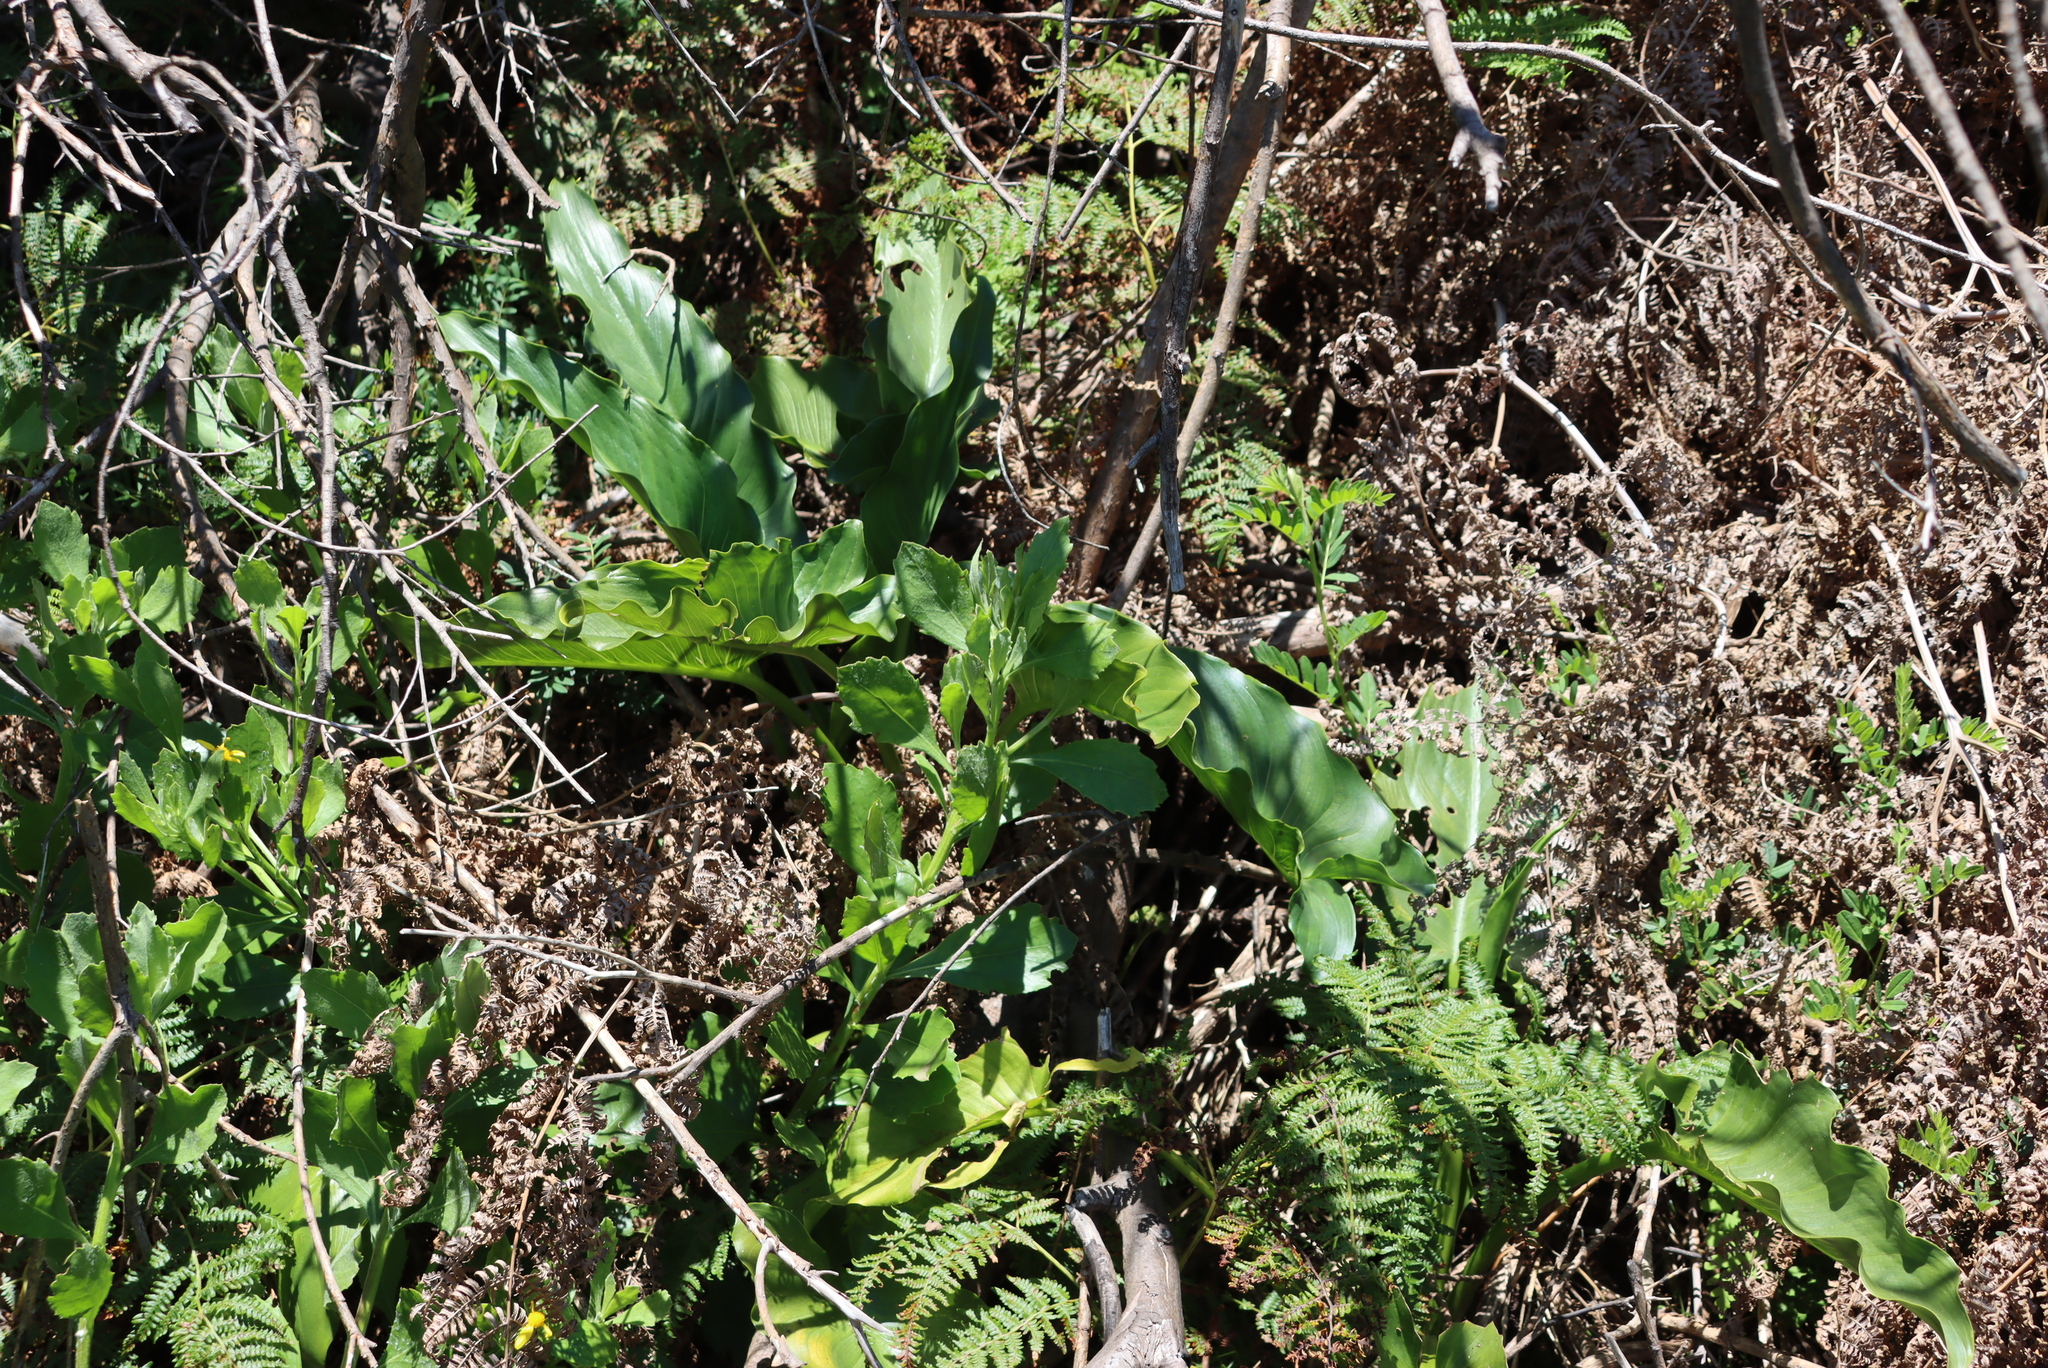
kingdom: Plantae
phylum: Tracheophyta
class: Liliopsida
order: Alismatales
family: Araceae
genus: Zantedeschia
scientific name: Zantedeschia aethiopica
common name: Altar-lily
